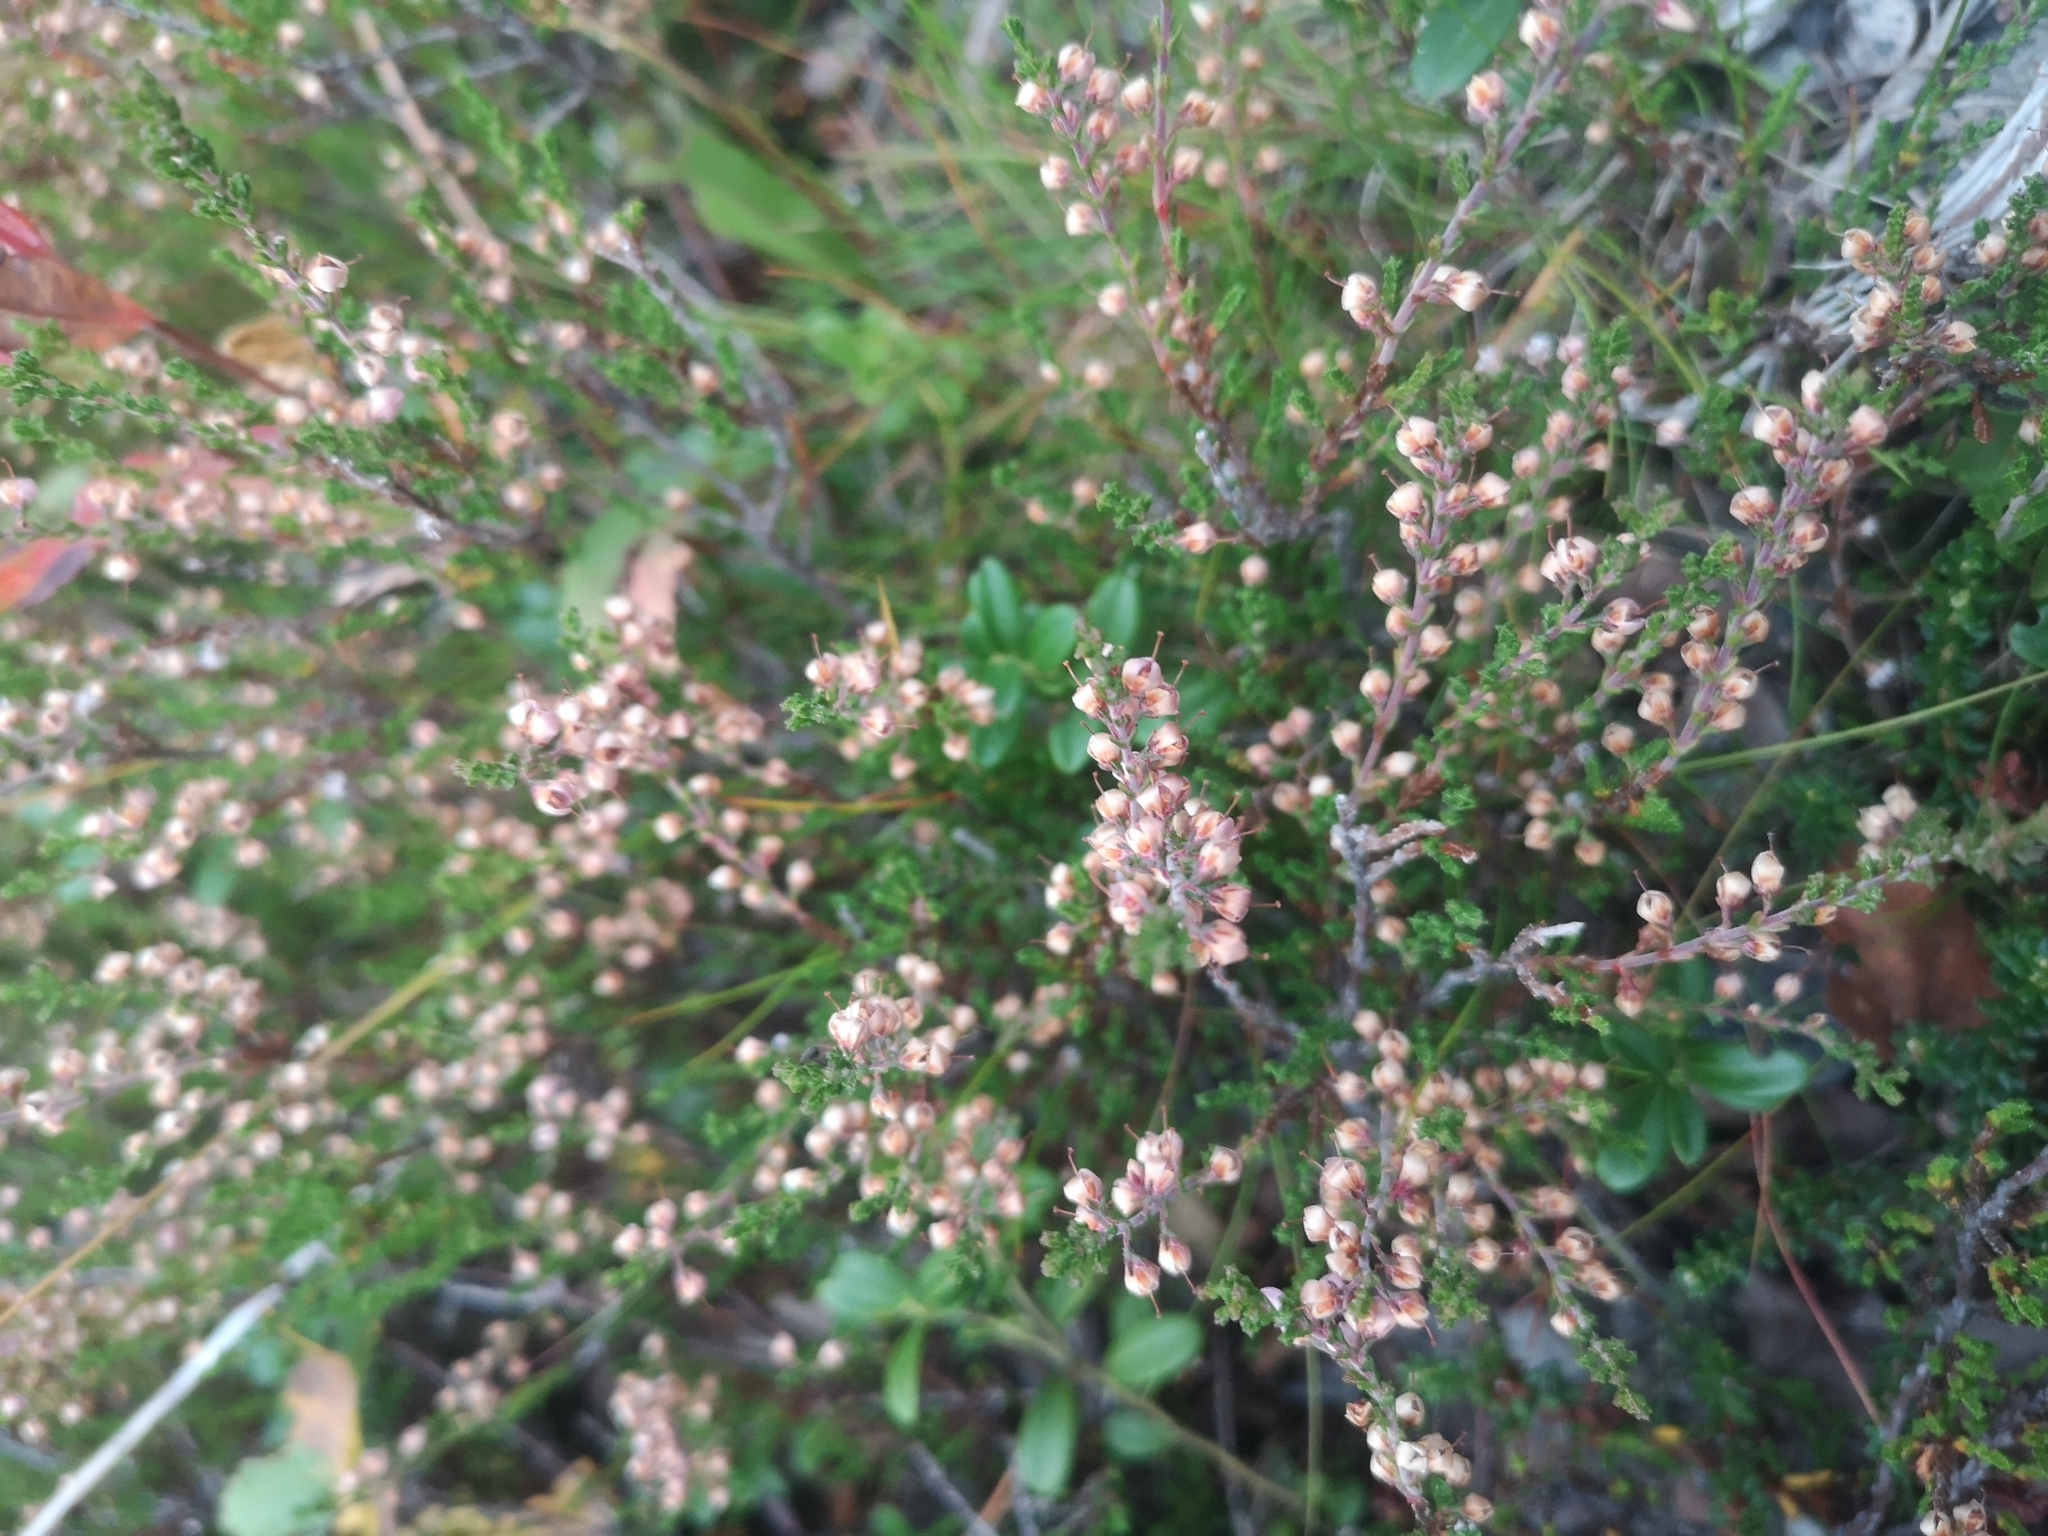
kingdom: Plantae
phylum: Tracheophyta
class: Magnoliopsida
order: Ericales
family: Ericaceae
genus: Calluna
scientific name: Calluna vulgaris
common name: Heather
